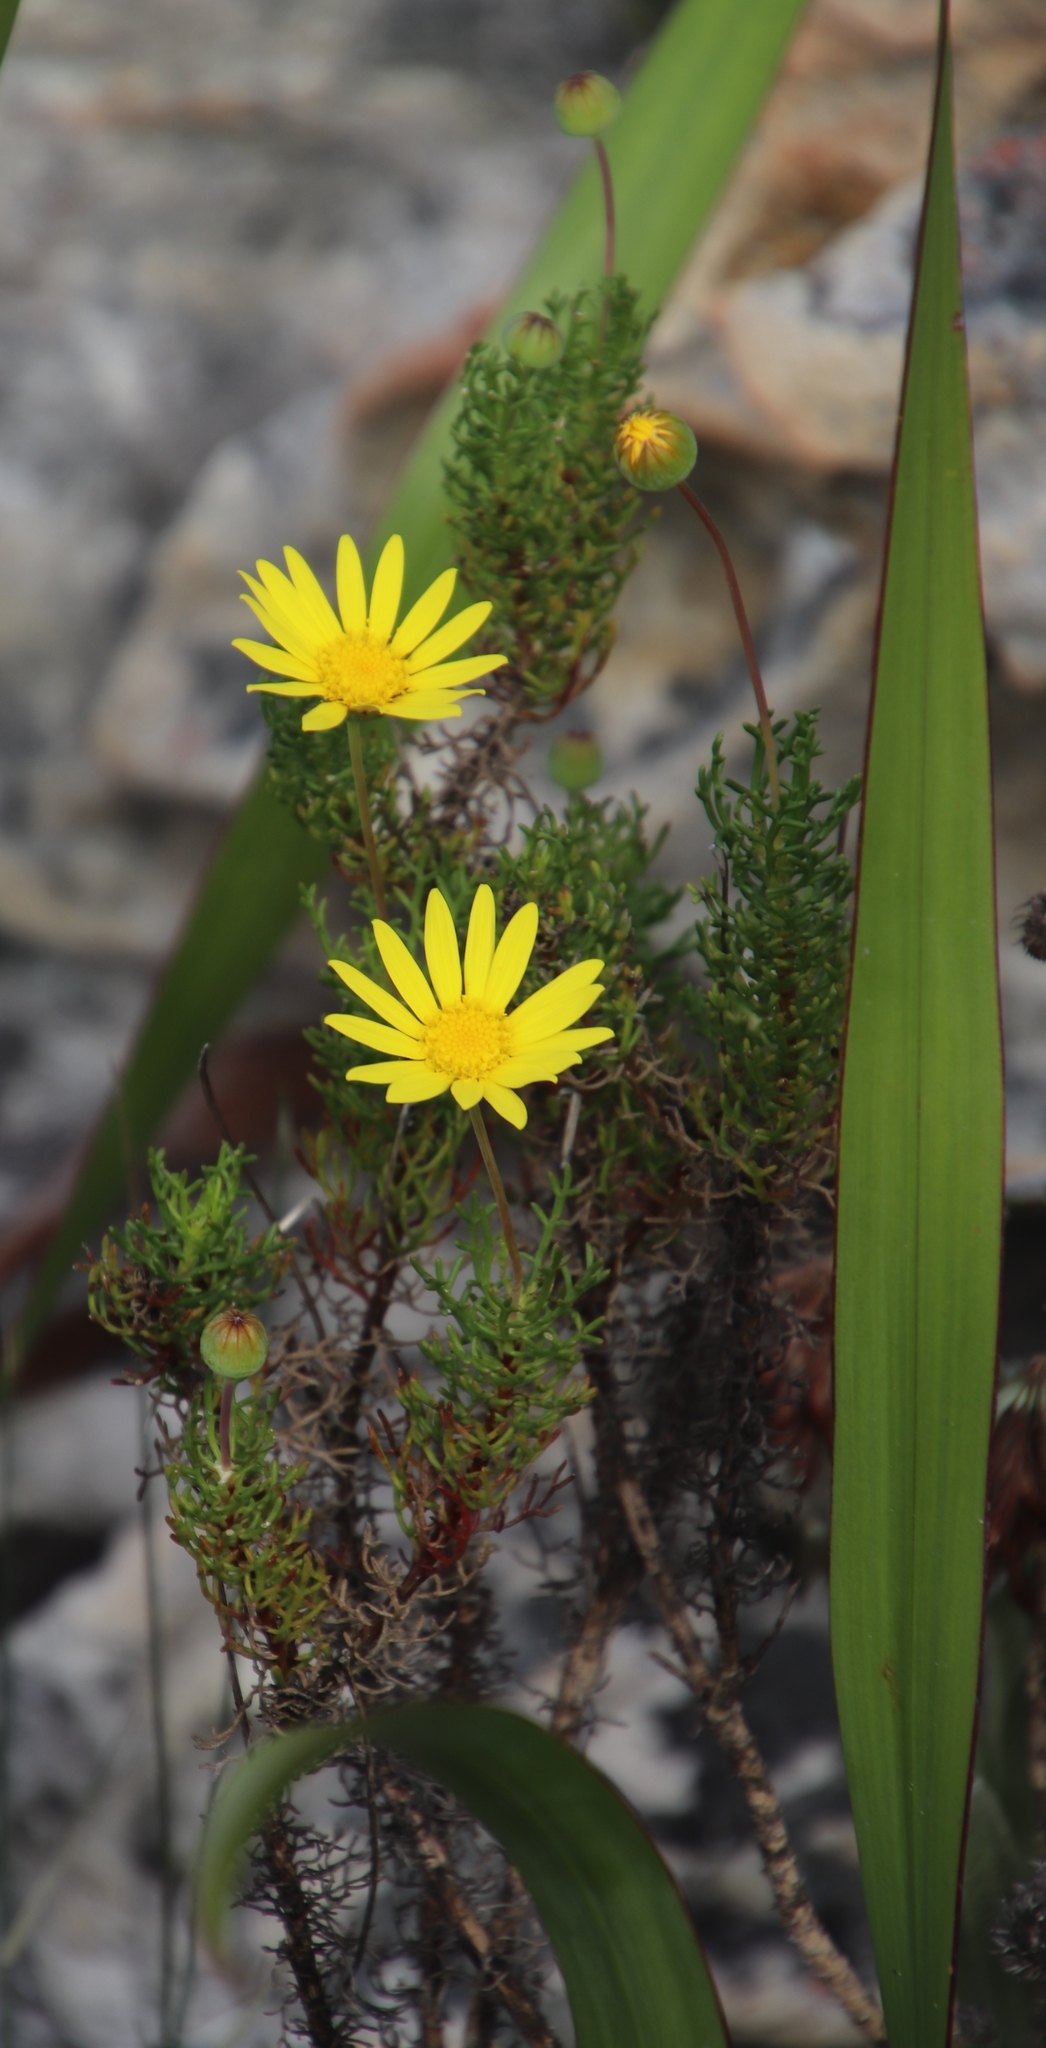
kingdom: Plantae
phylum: Tracheophyta
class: Magnoliopsida
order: Asterales
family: Asteraceae
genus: Euryops
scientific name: Euryops abrotanifolius
